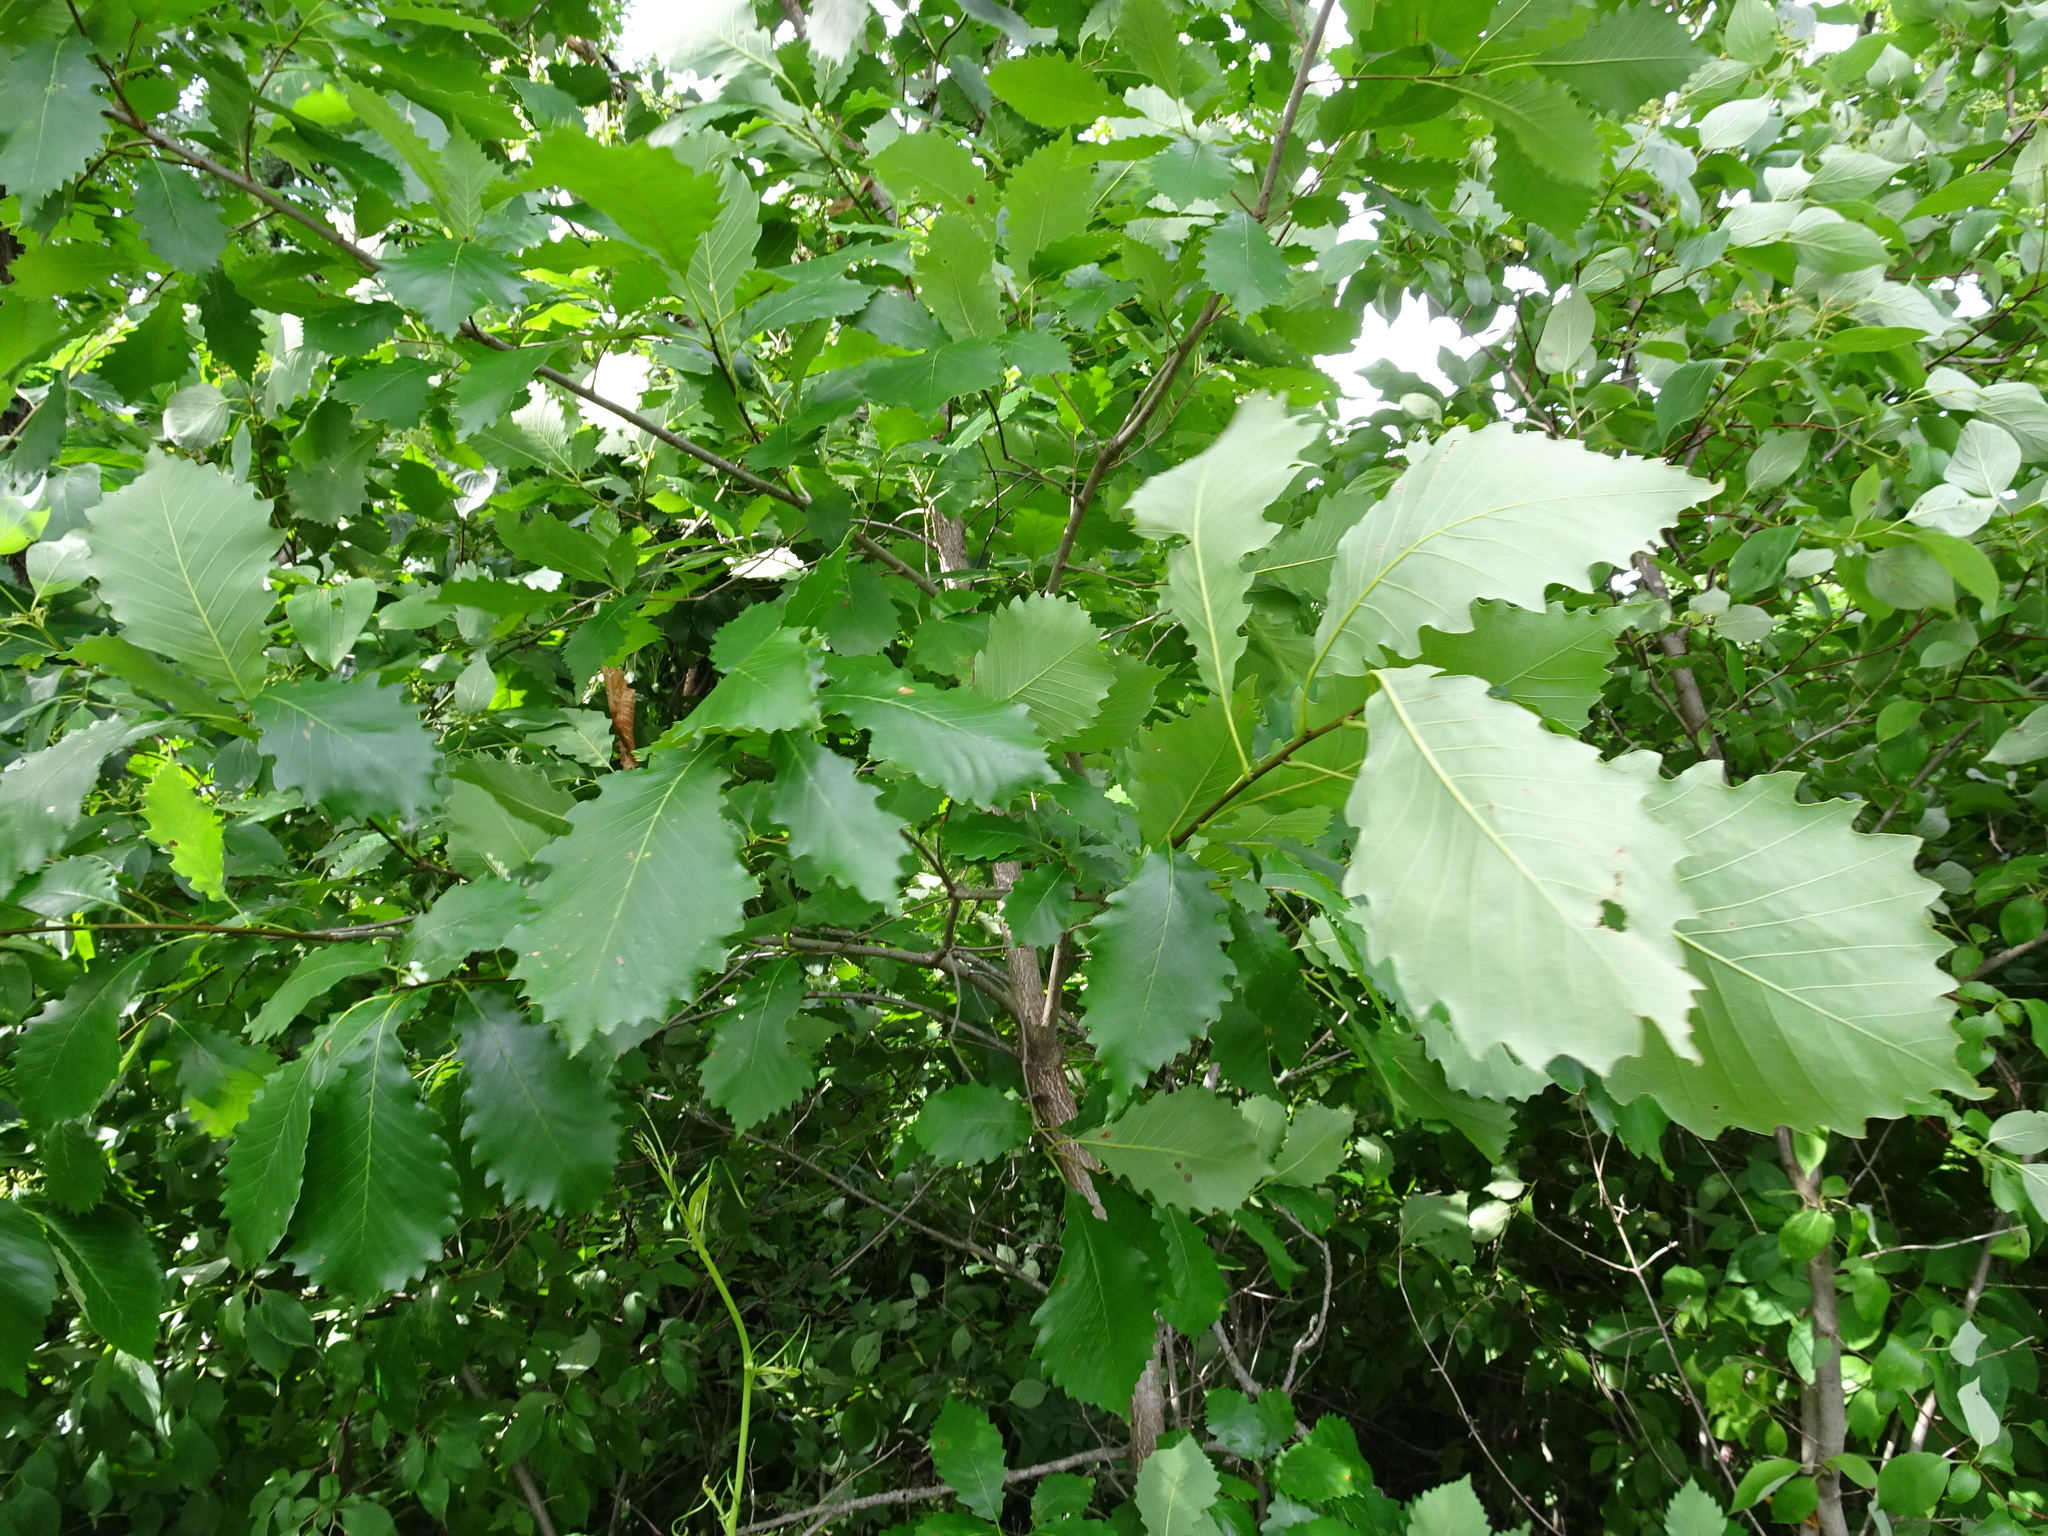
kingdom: Plantae
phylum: Tracheophyta
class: Magnoliopsida
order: Fagales
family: Fagaceae
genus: Quercus
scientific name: Quercus muehlenbergii
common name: Chinkapin oak
